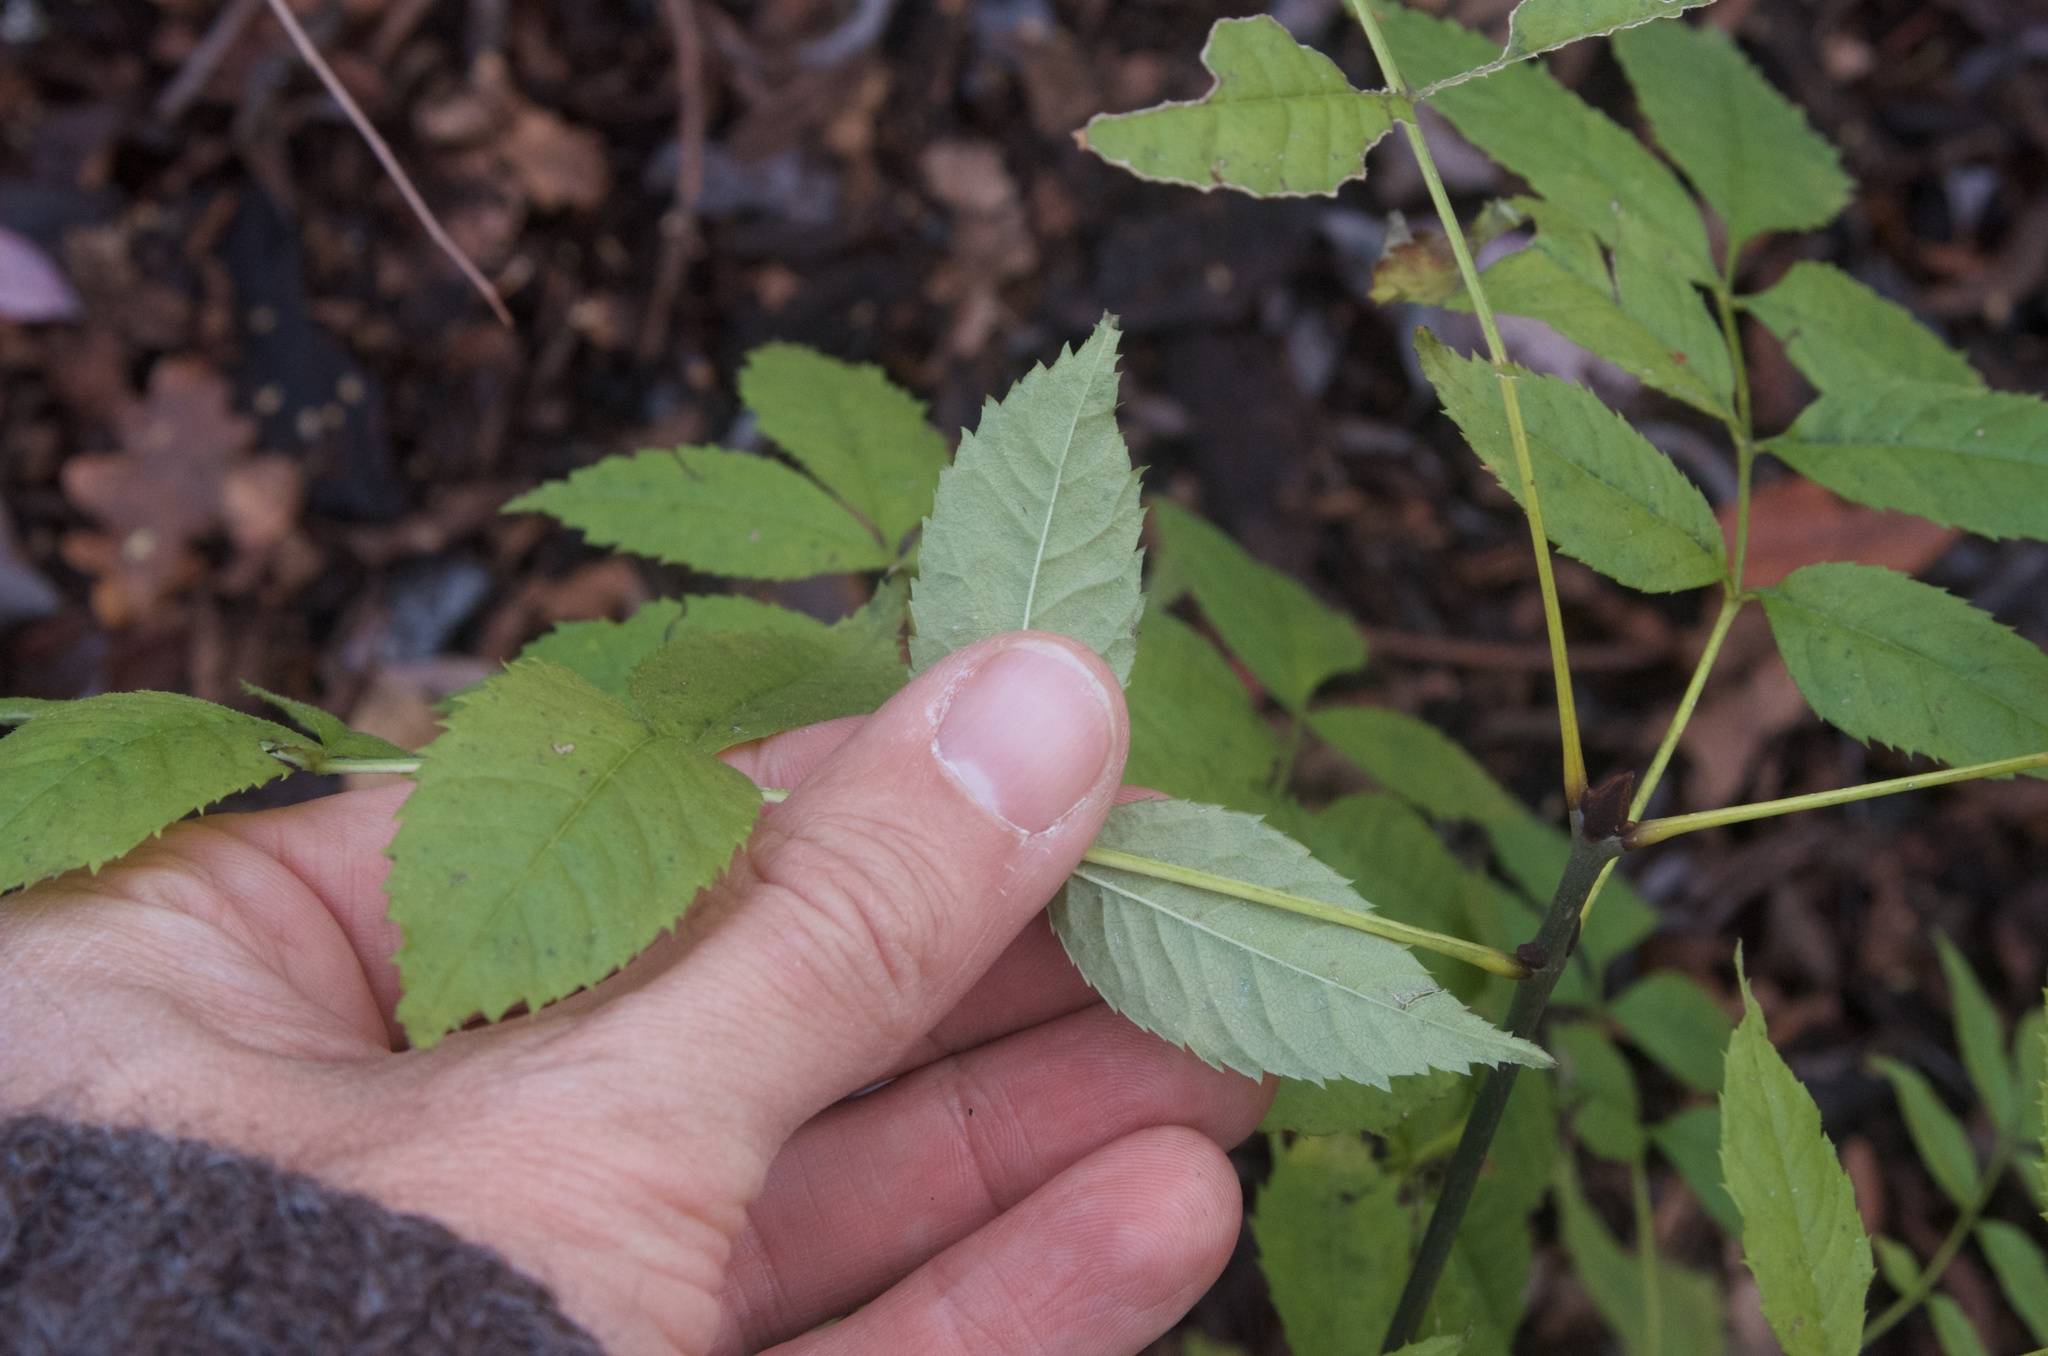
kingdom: Plantae
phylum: Tracheophyta
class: Magnoliopsida
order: Lamiales
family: Oleaceae
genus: Fraxinus
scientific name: Fraxinus excelsior
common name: European ash
